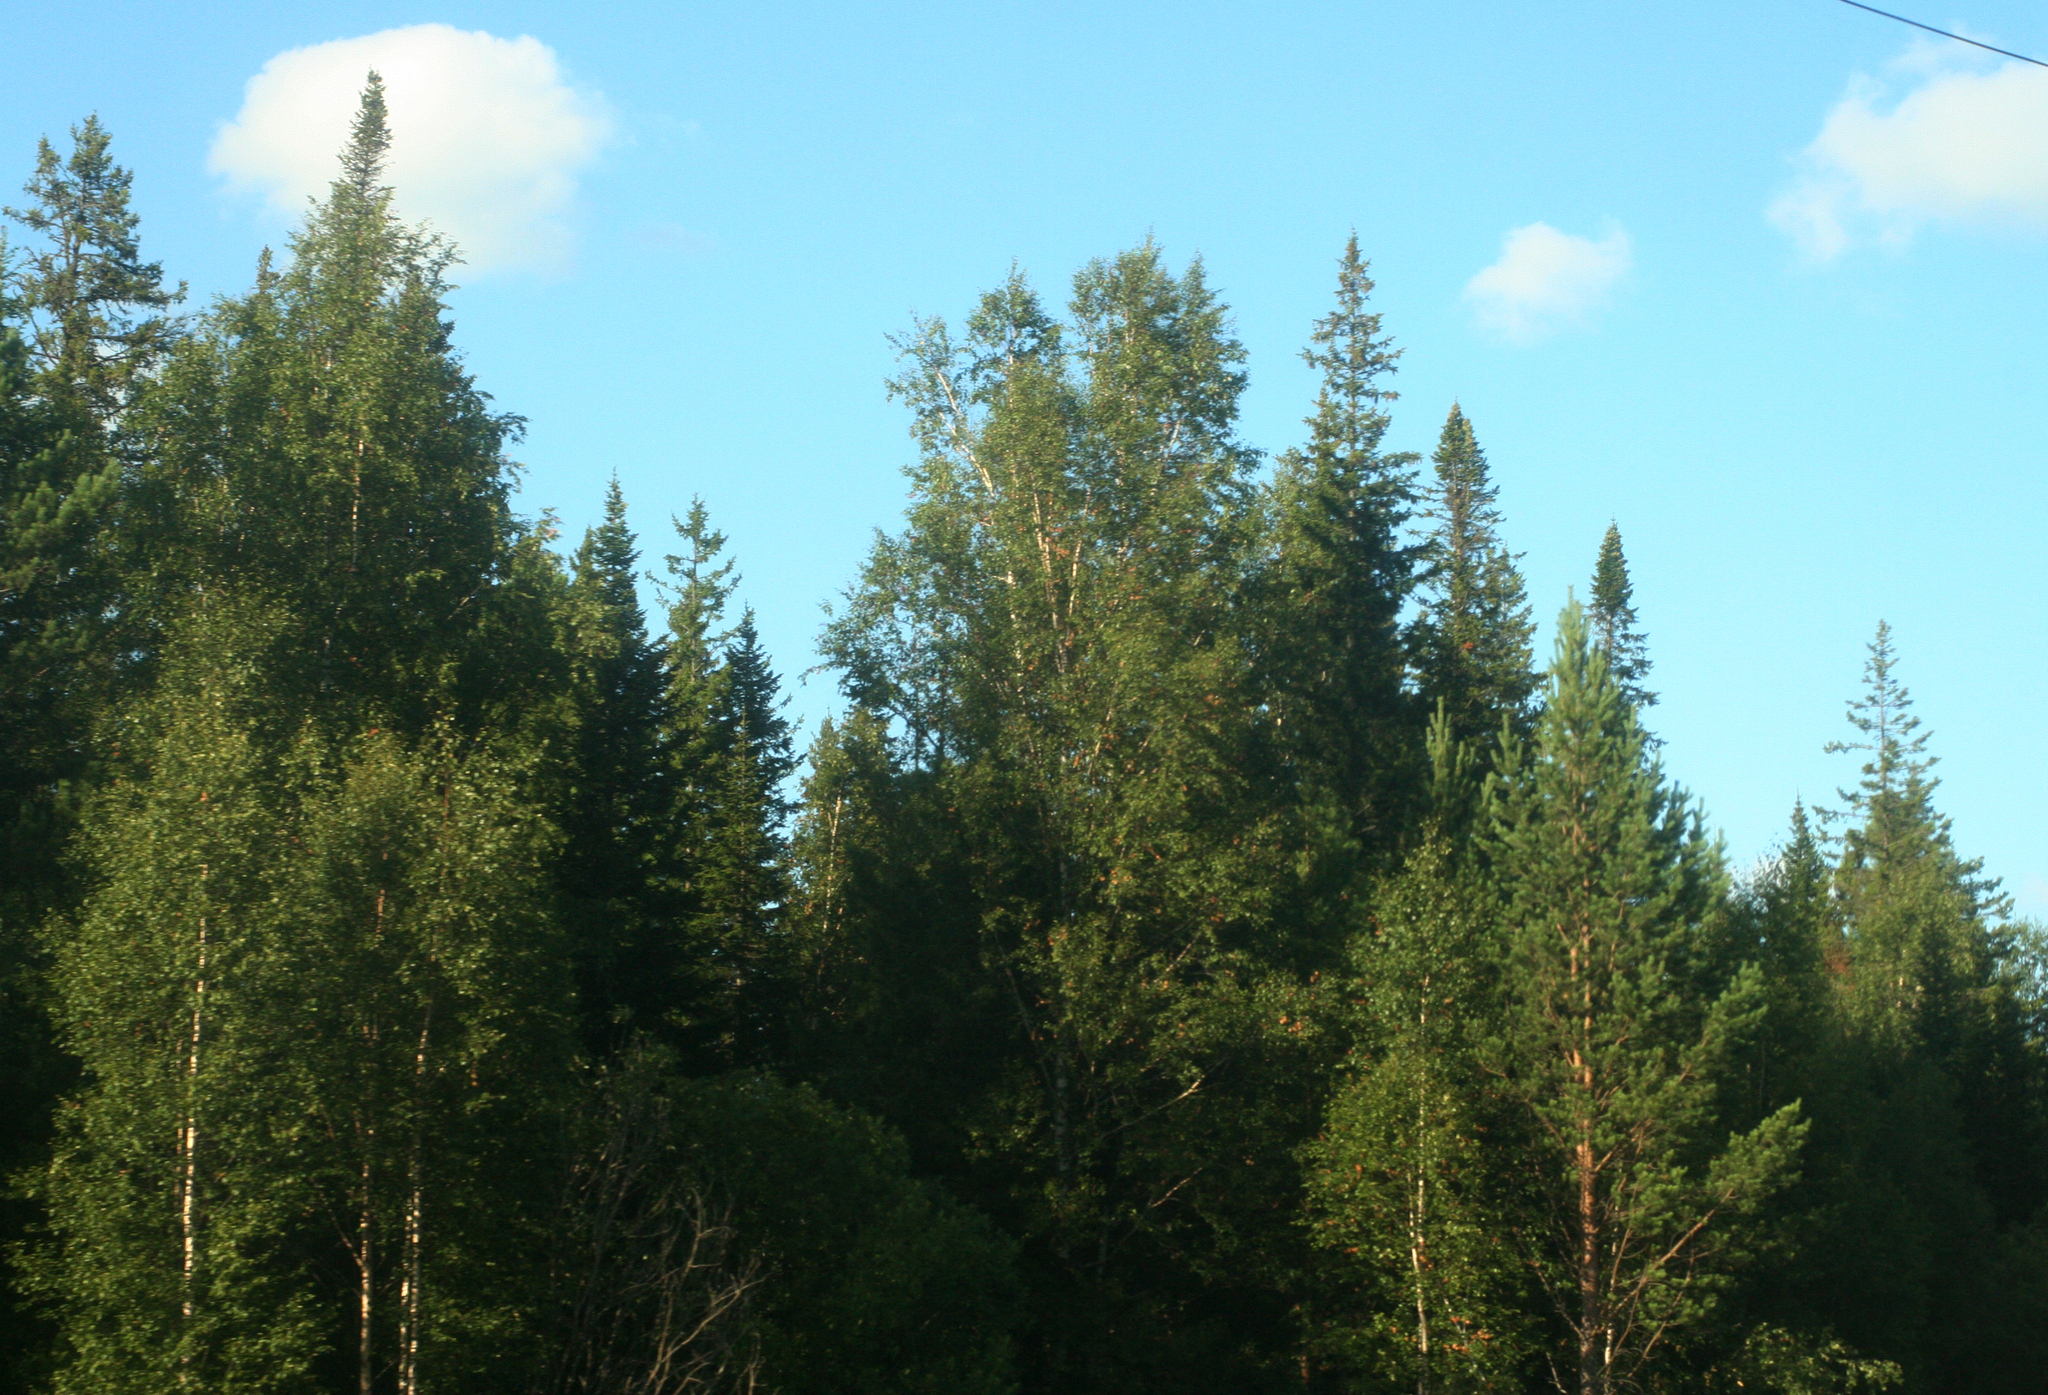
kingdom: Plantae
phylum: Tracheophyta
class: Pinopsida
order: Pinales
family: Pinaceae
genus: Pinus
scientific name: Pinus sylvestris
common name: Scots pine
